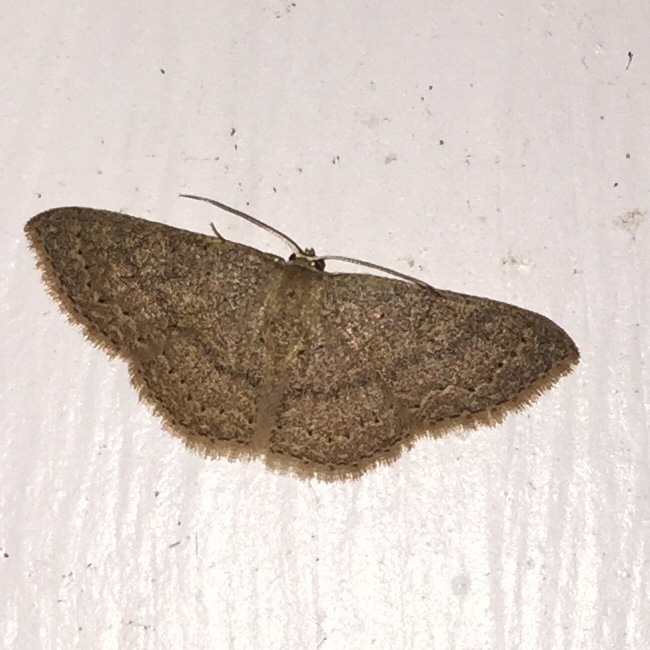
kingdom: Animalia
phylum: Arthropoda
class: Insecta
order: Lepidoptera
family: Geometridae
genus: Pleuroprucha
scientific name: Pleuroprucha insulsaria
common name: Common tan wave
